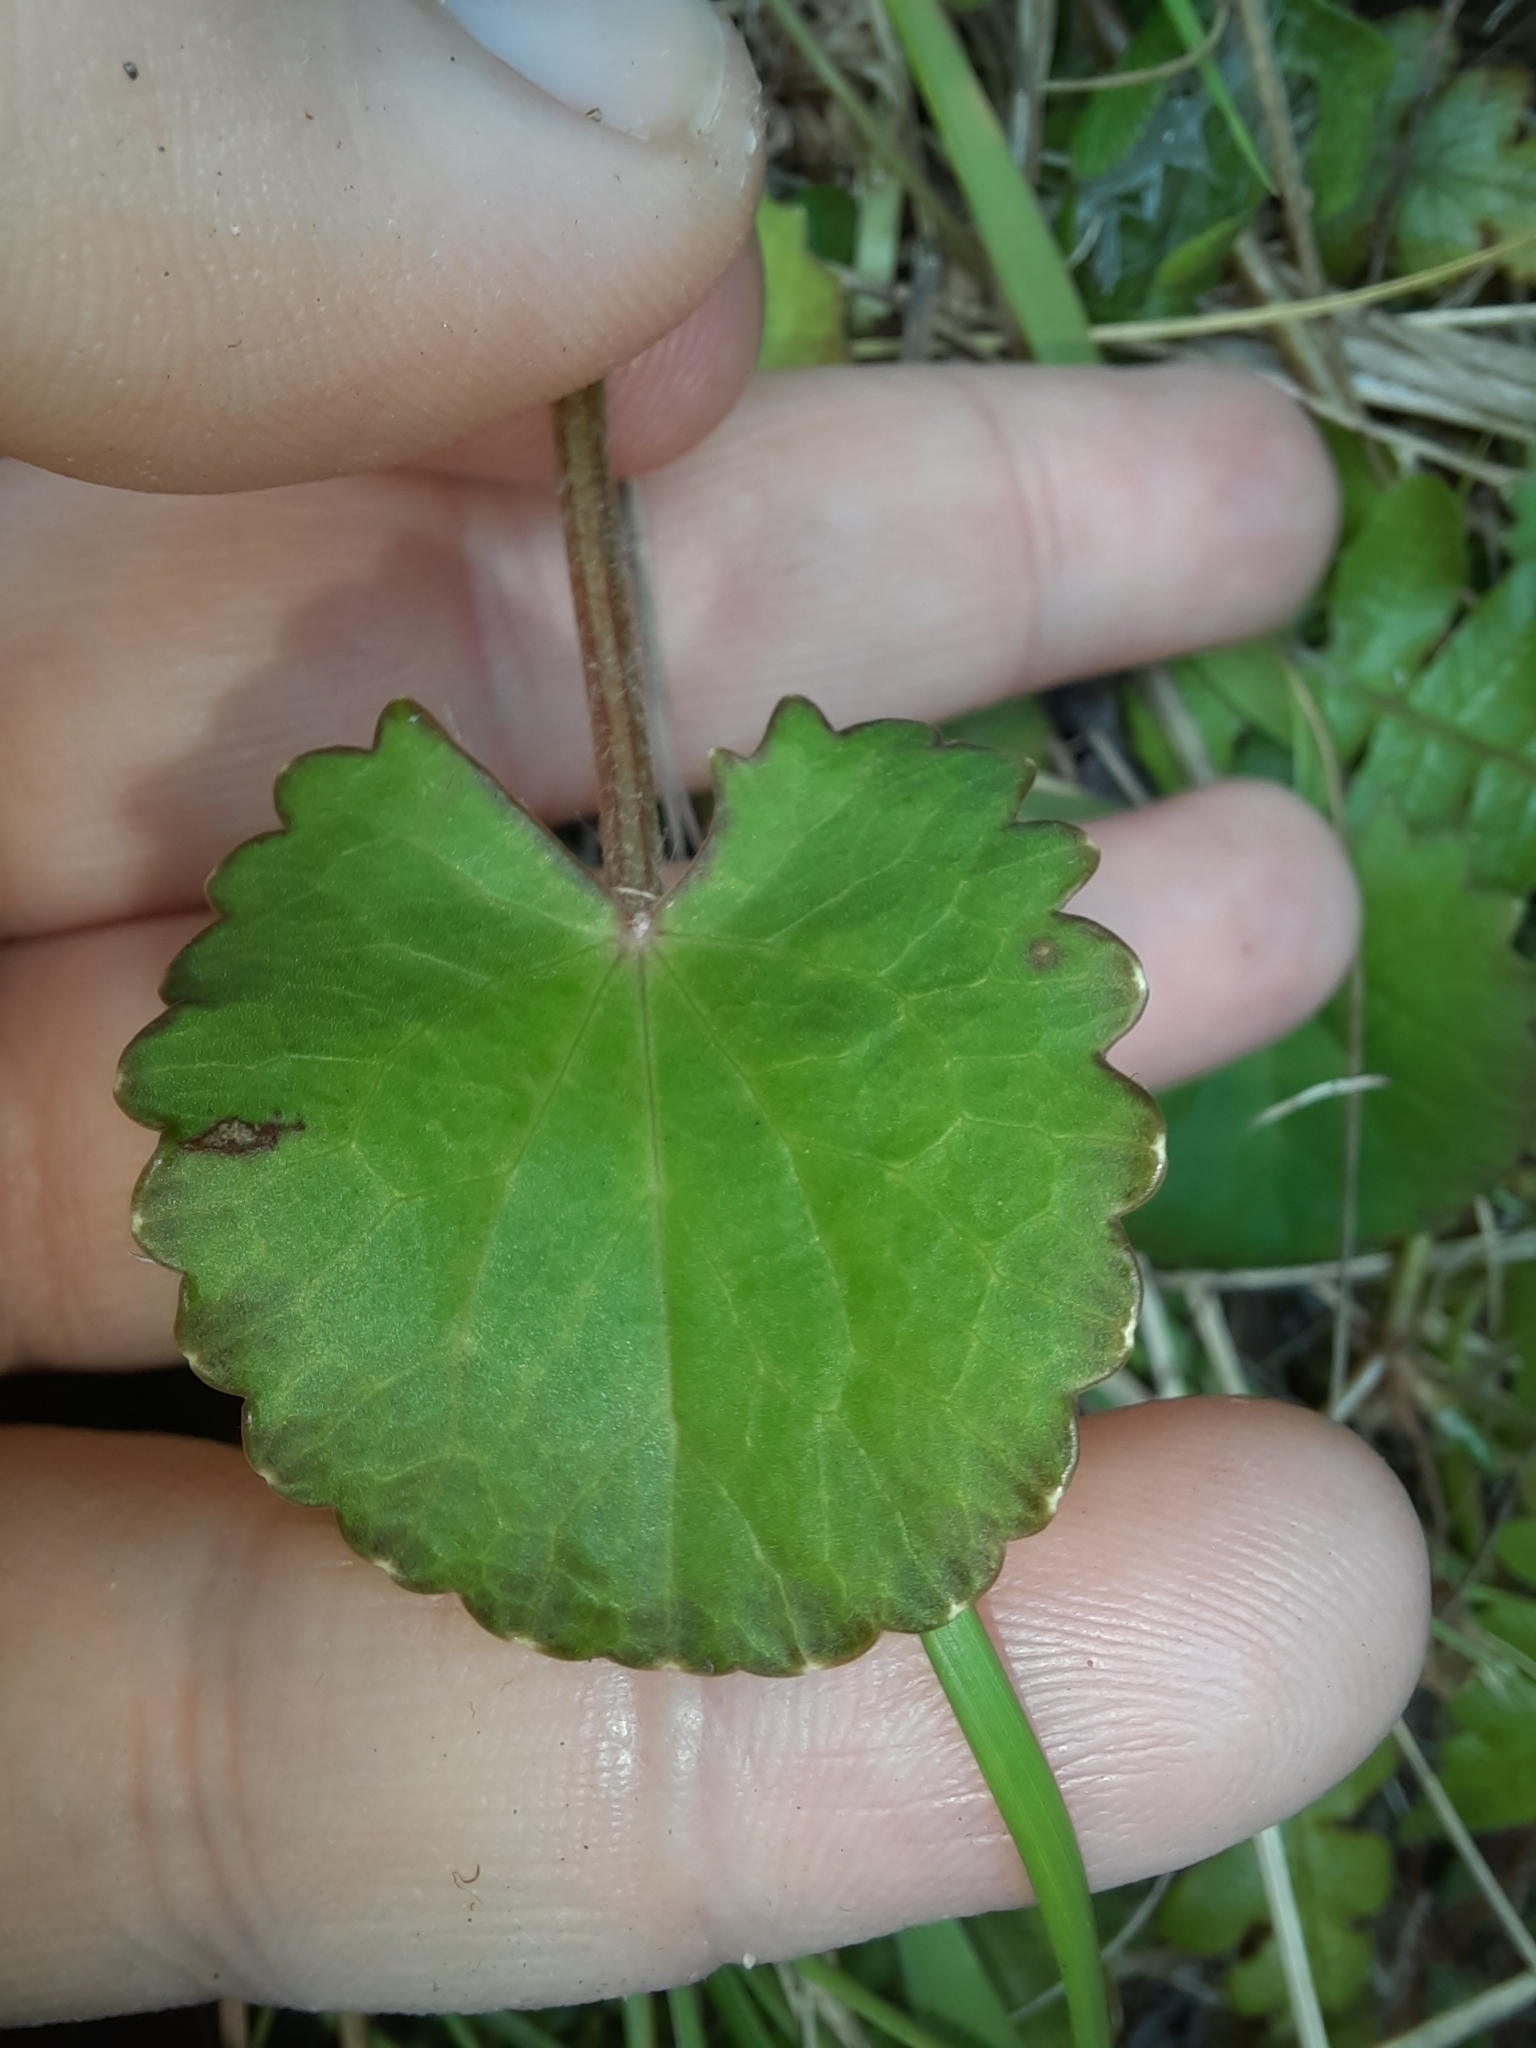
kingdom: Plantae
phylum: Tracheophyta
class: Magnoliopsida
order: Apiales
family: Apiaceae
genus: Centella
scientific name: Centella uniflora
